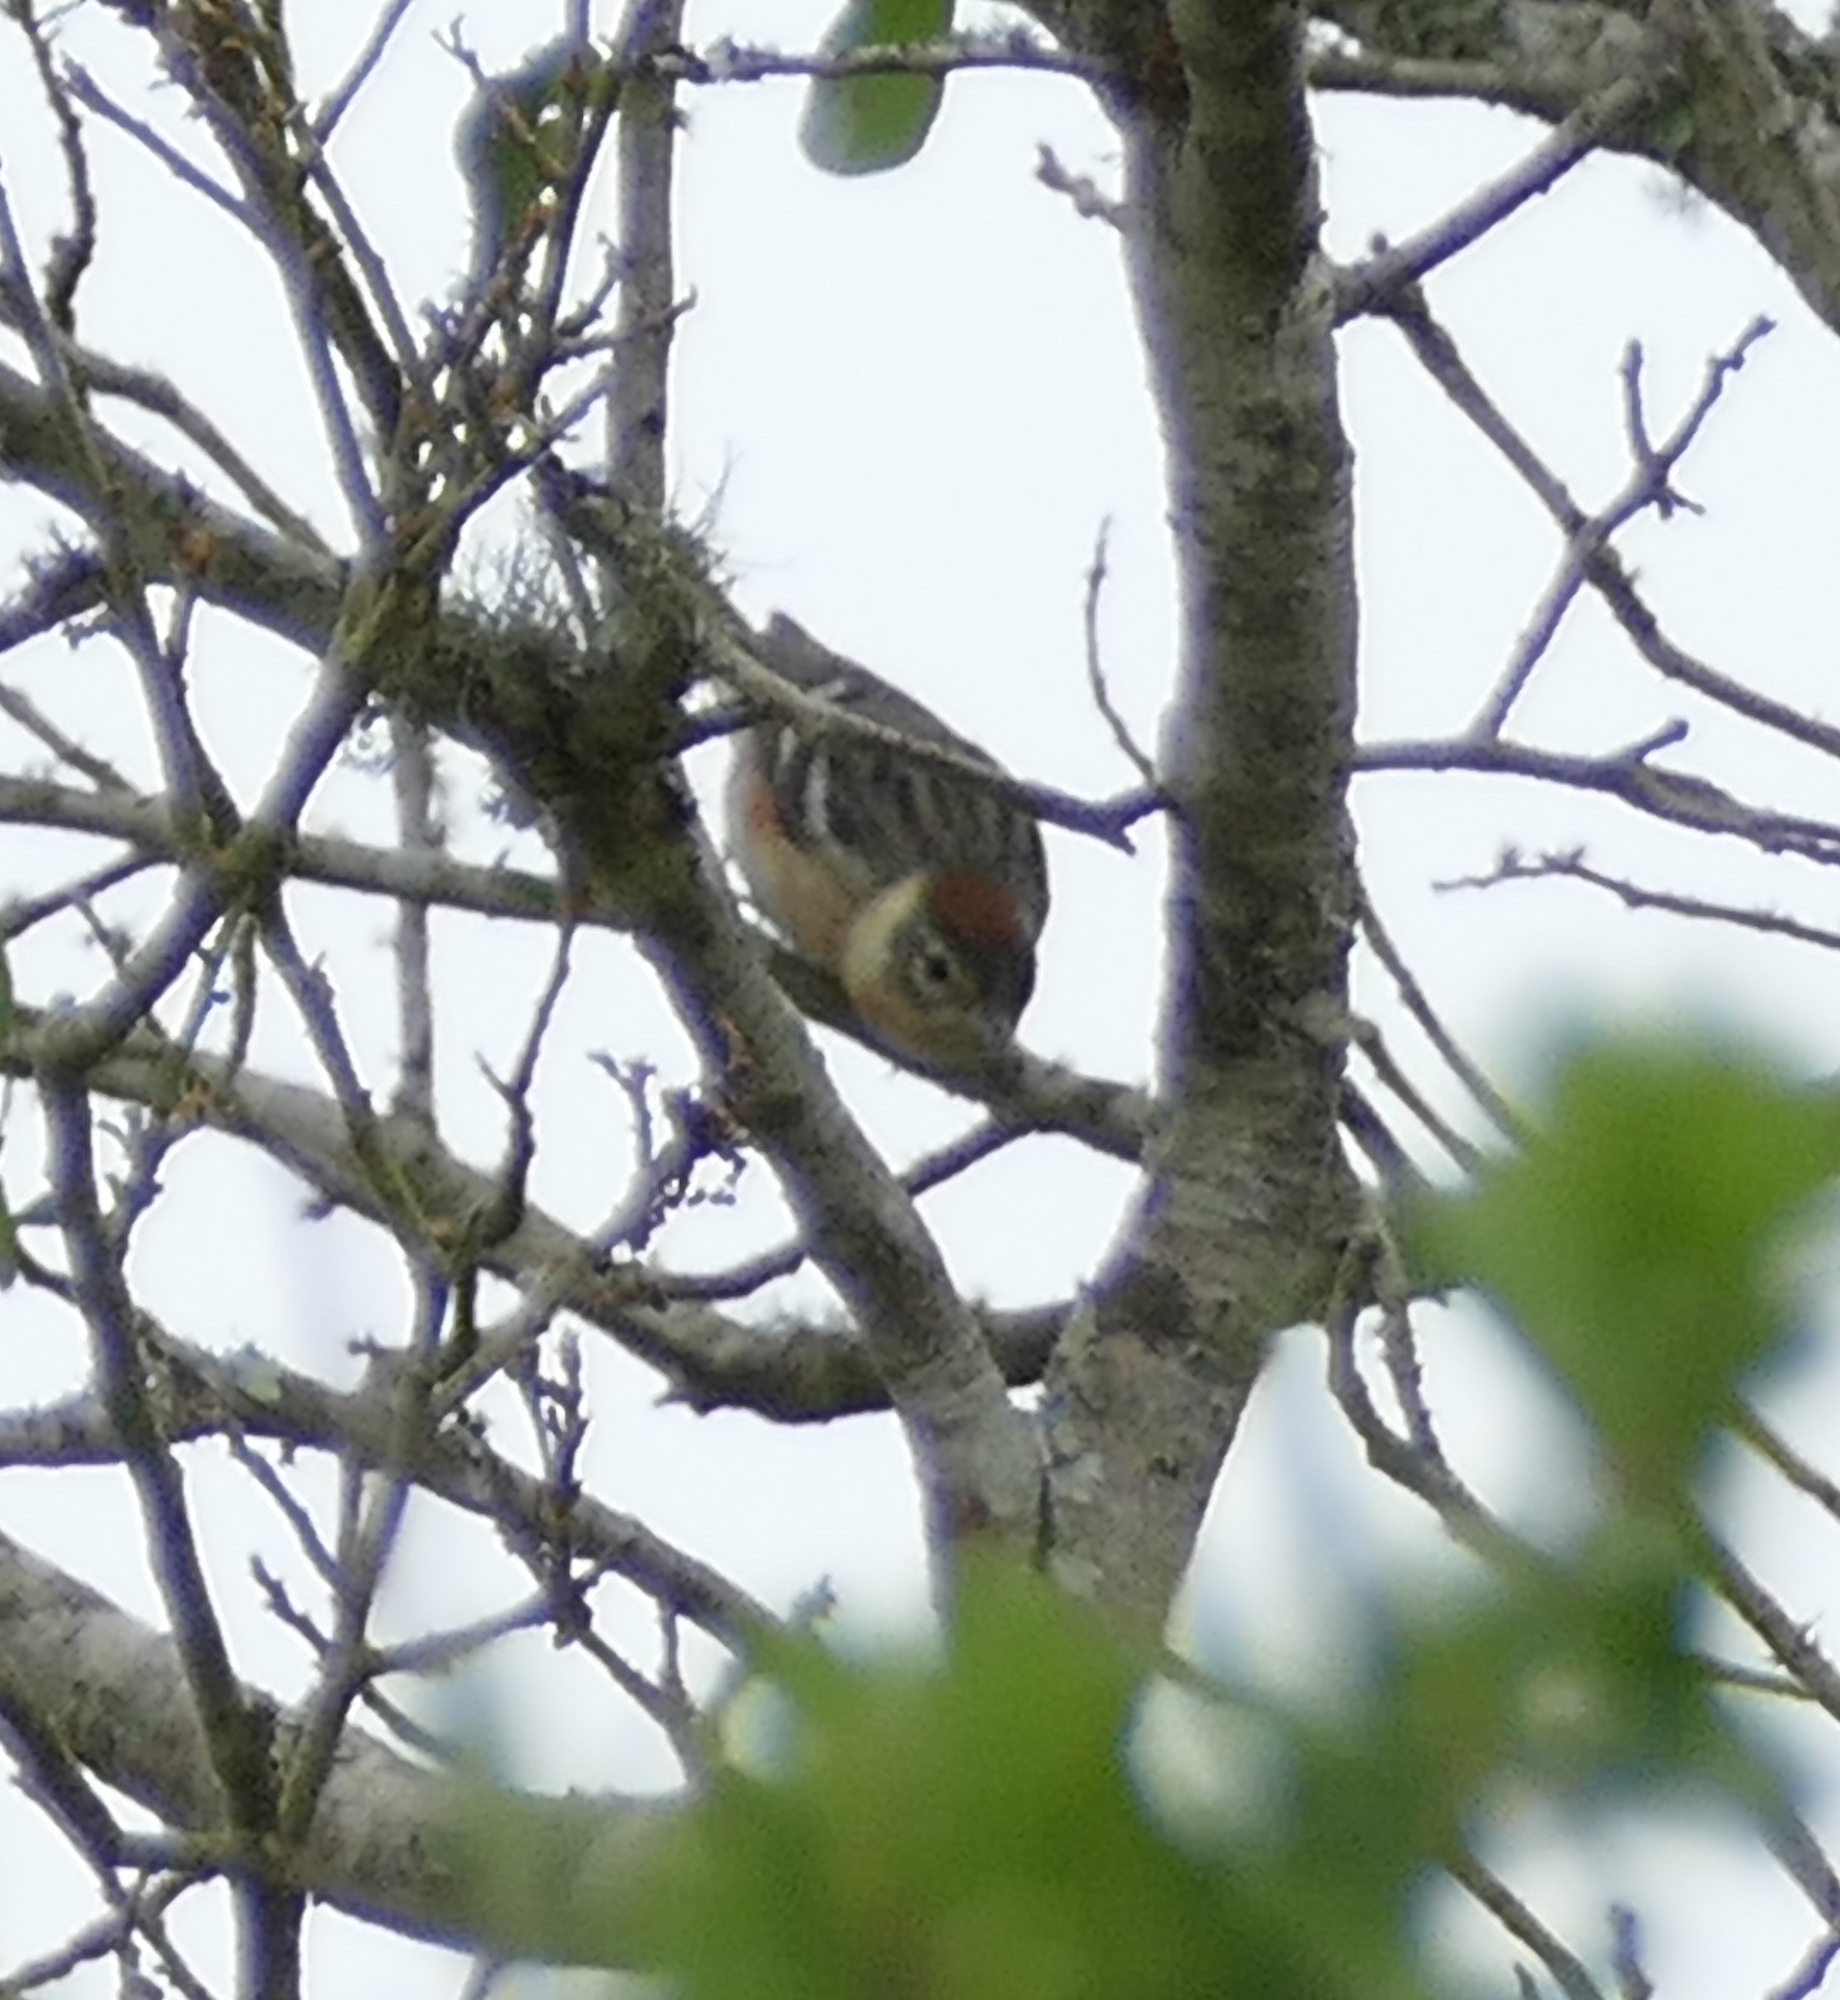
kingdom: Animalia
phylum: Chordata
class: Aves
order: Passeriformes
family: Parulidae
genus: Setophaga
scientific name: Setophaga castanea
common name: Bay-breasted warbler
